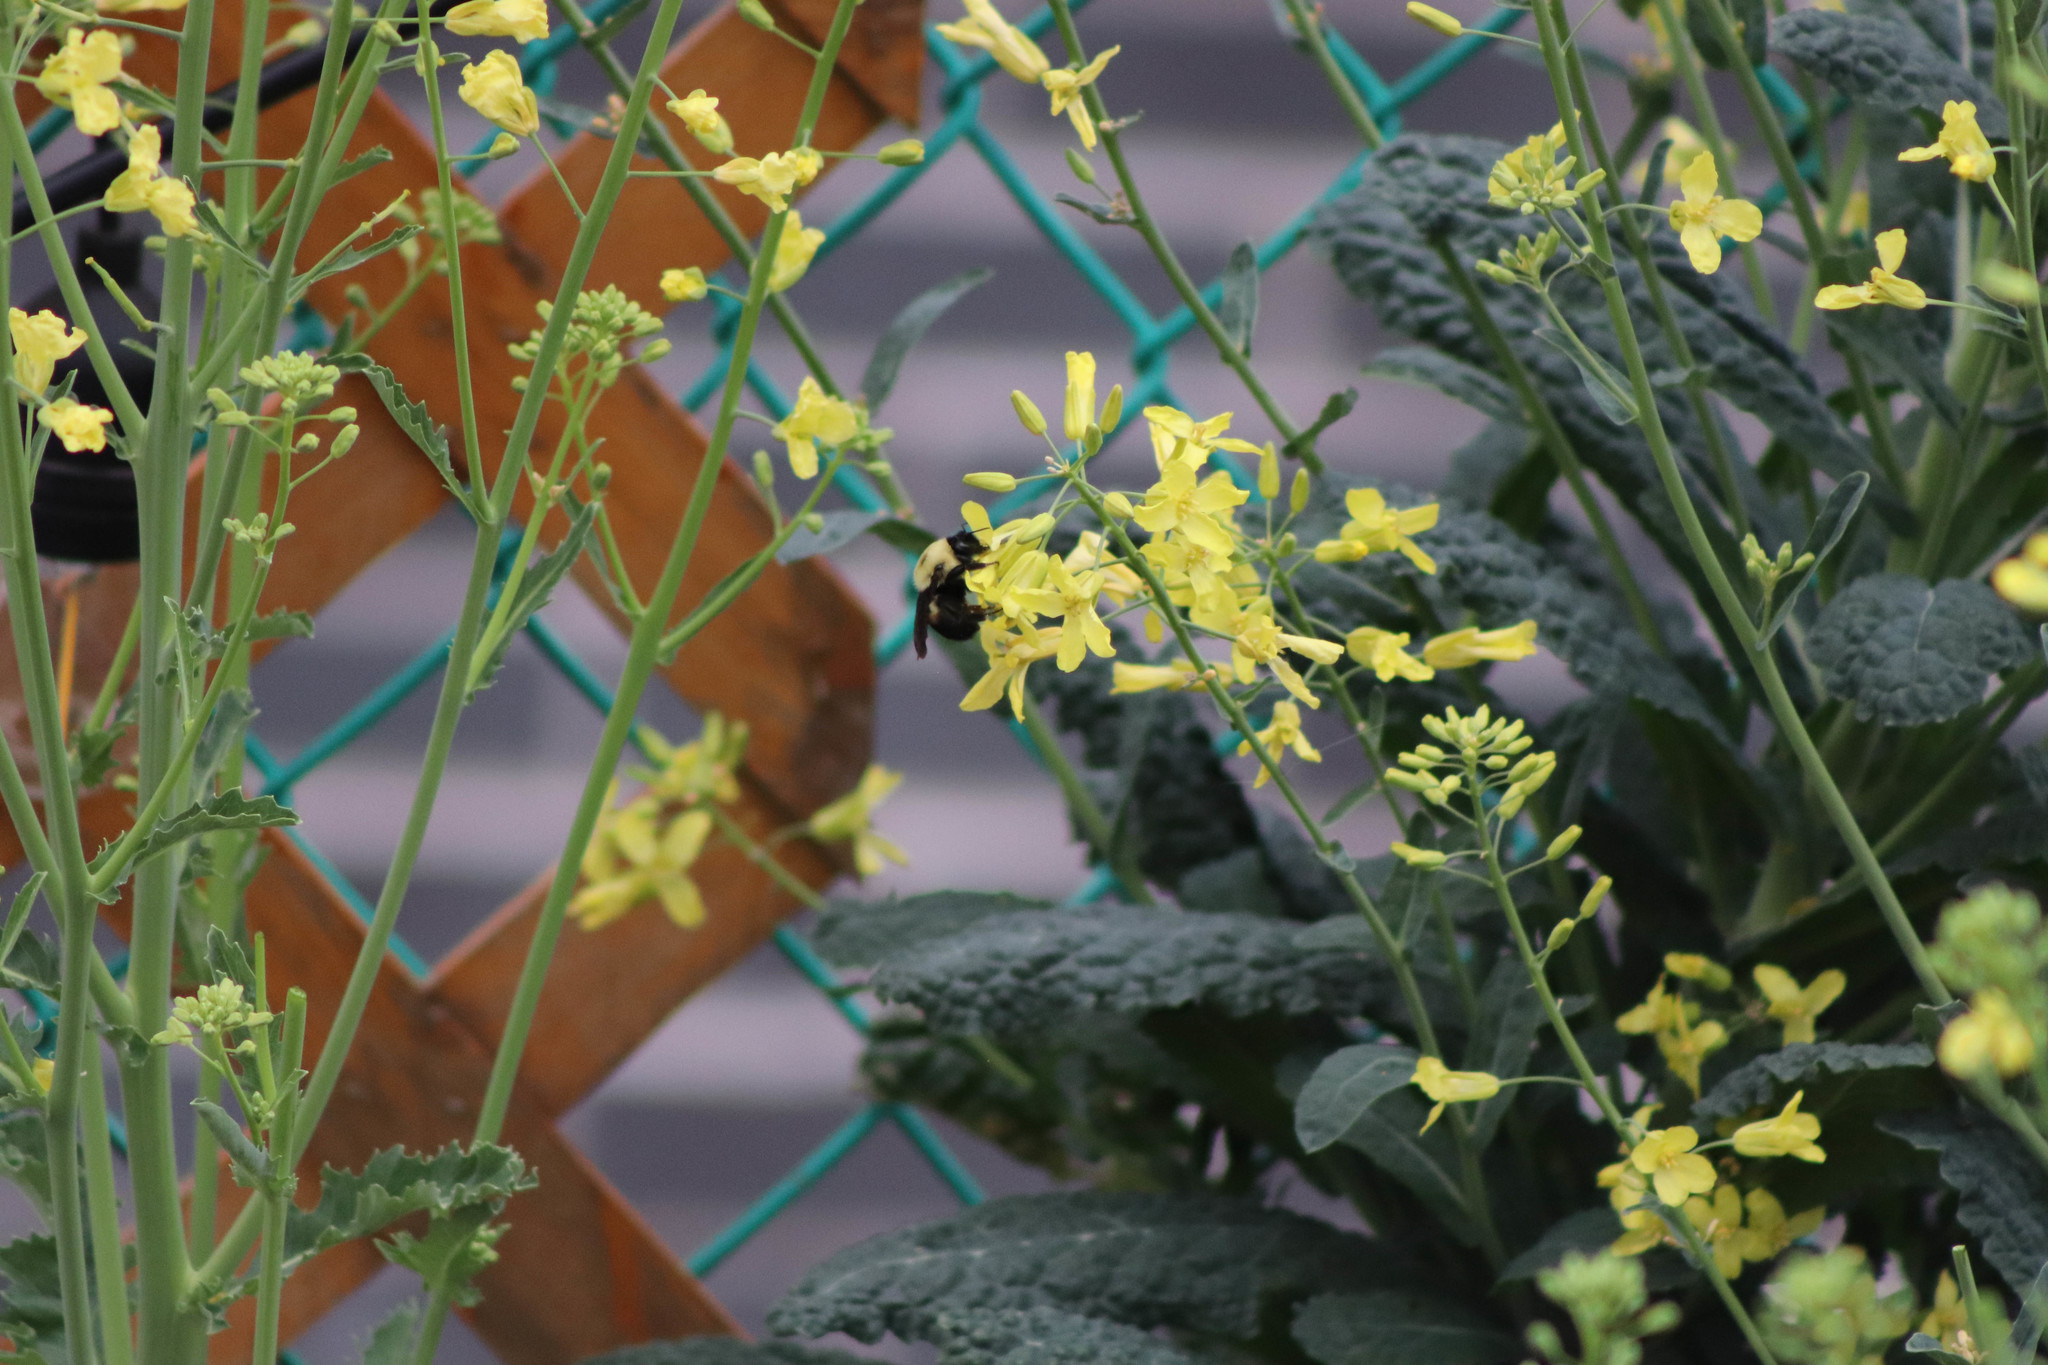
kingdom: Animalia
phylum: Arthropoda
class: Insecta
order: Hymenoptera
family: Apidae
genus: Bombus
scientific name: Bombus griseocollis
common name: Brown-belted bumble bee
